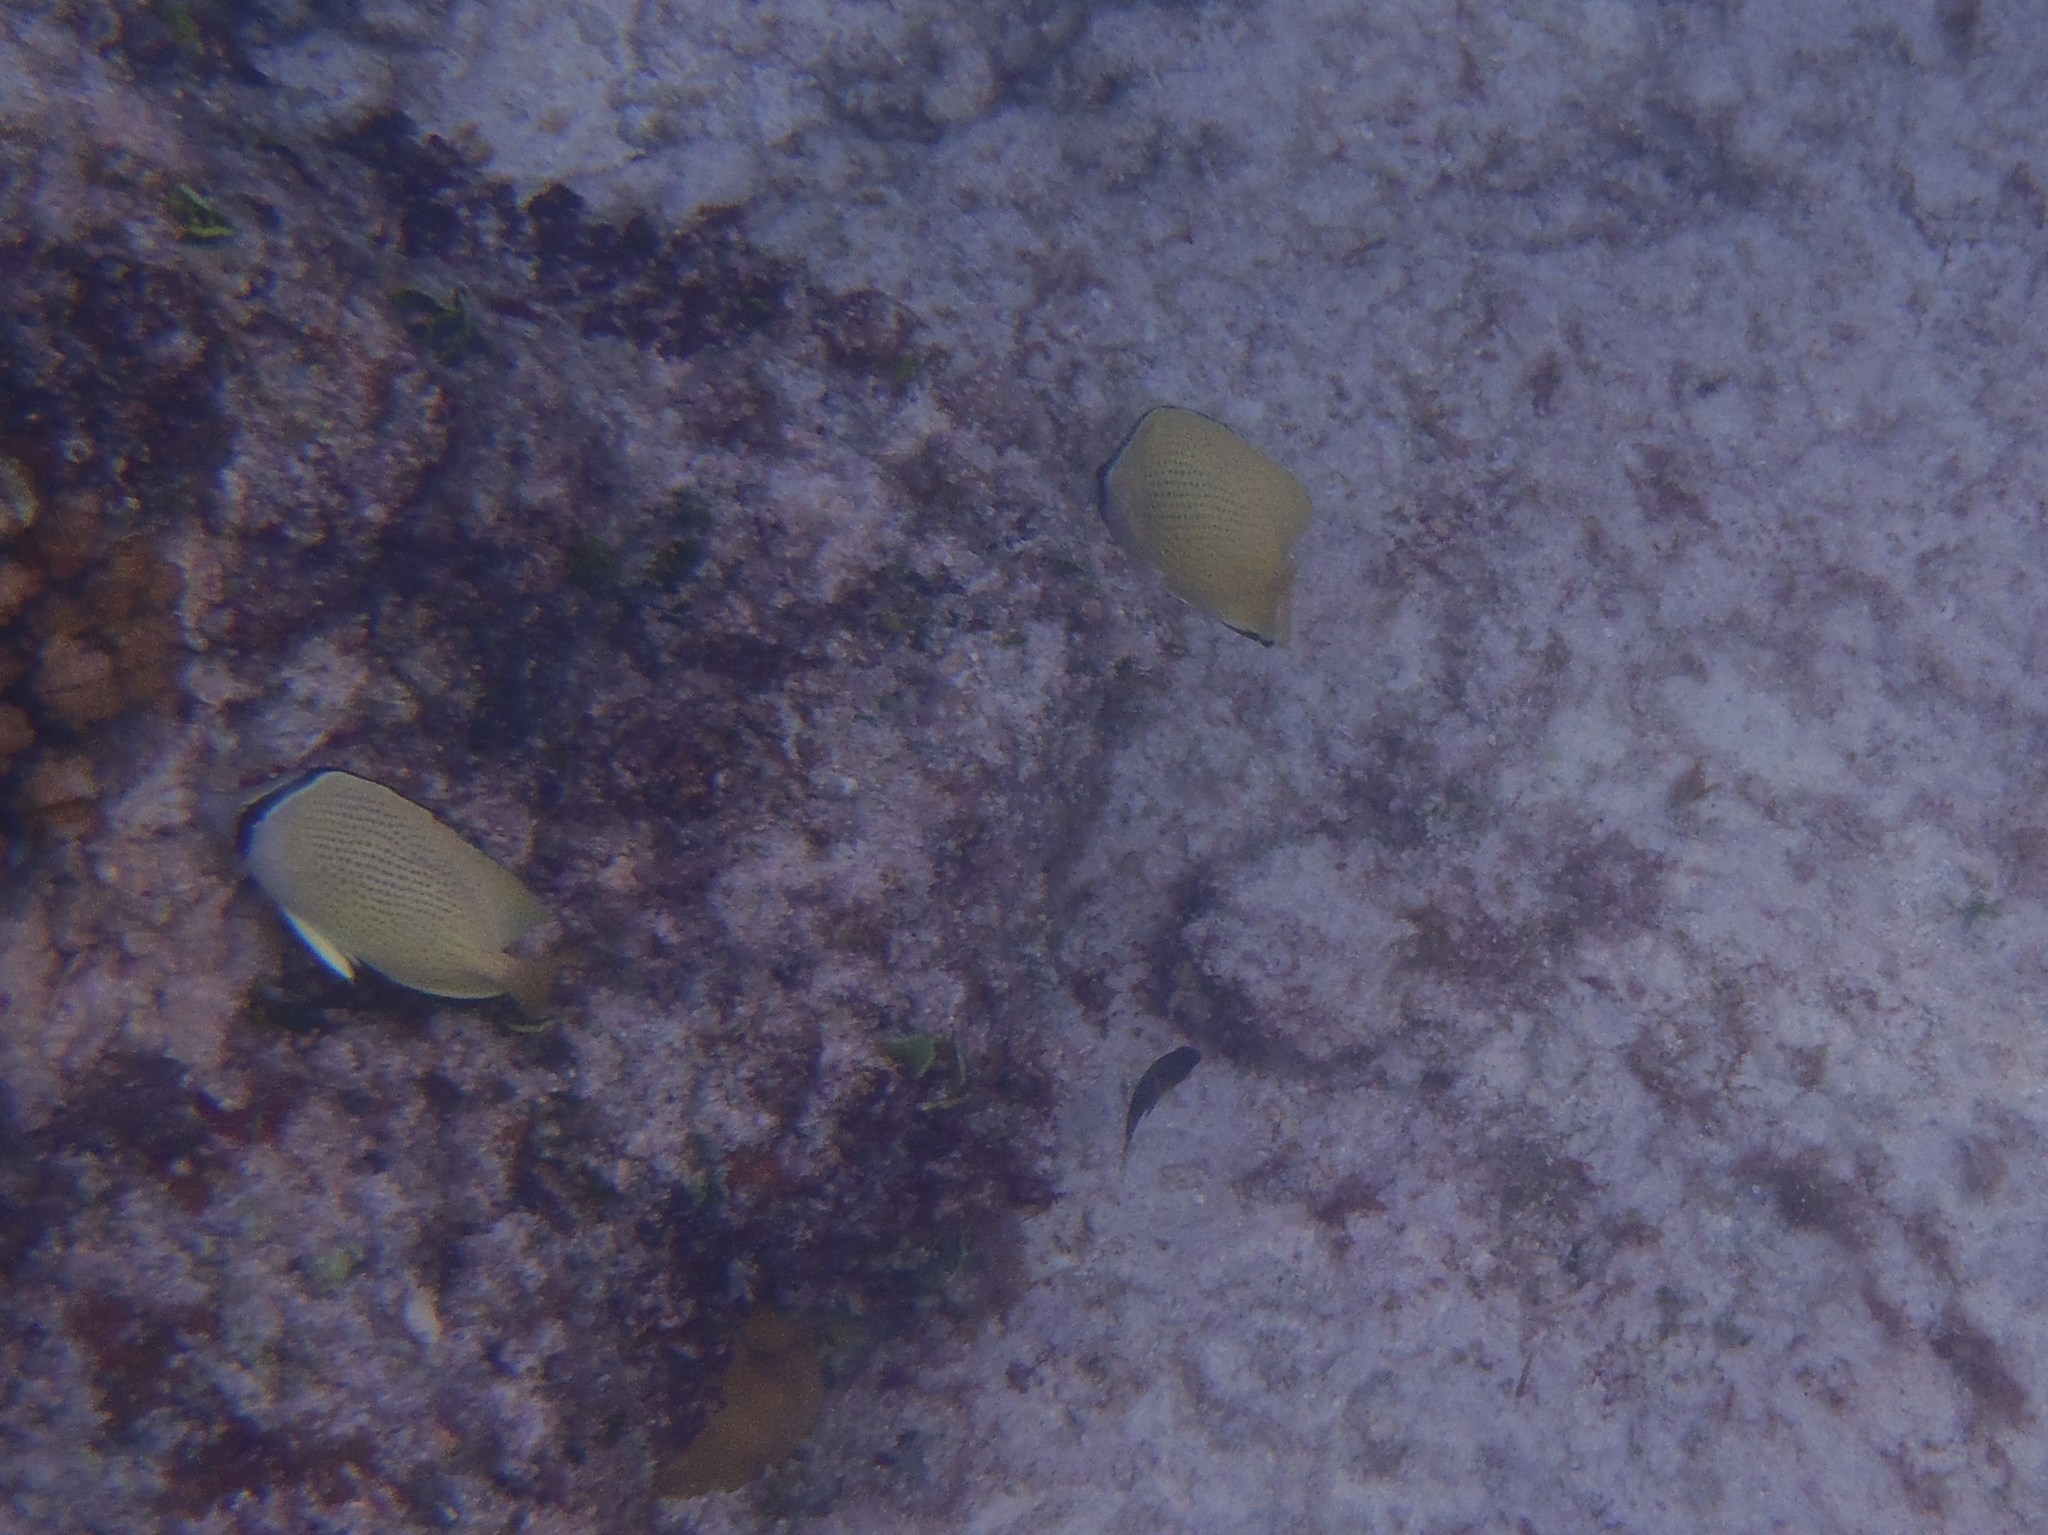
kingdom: Animalia
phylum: Chordata
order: Perciformes
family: Chaetodontidae
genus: Chaetodon
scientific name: Chaetodon citrinellus
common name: Speckled butterflyfish
